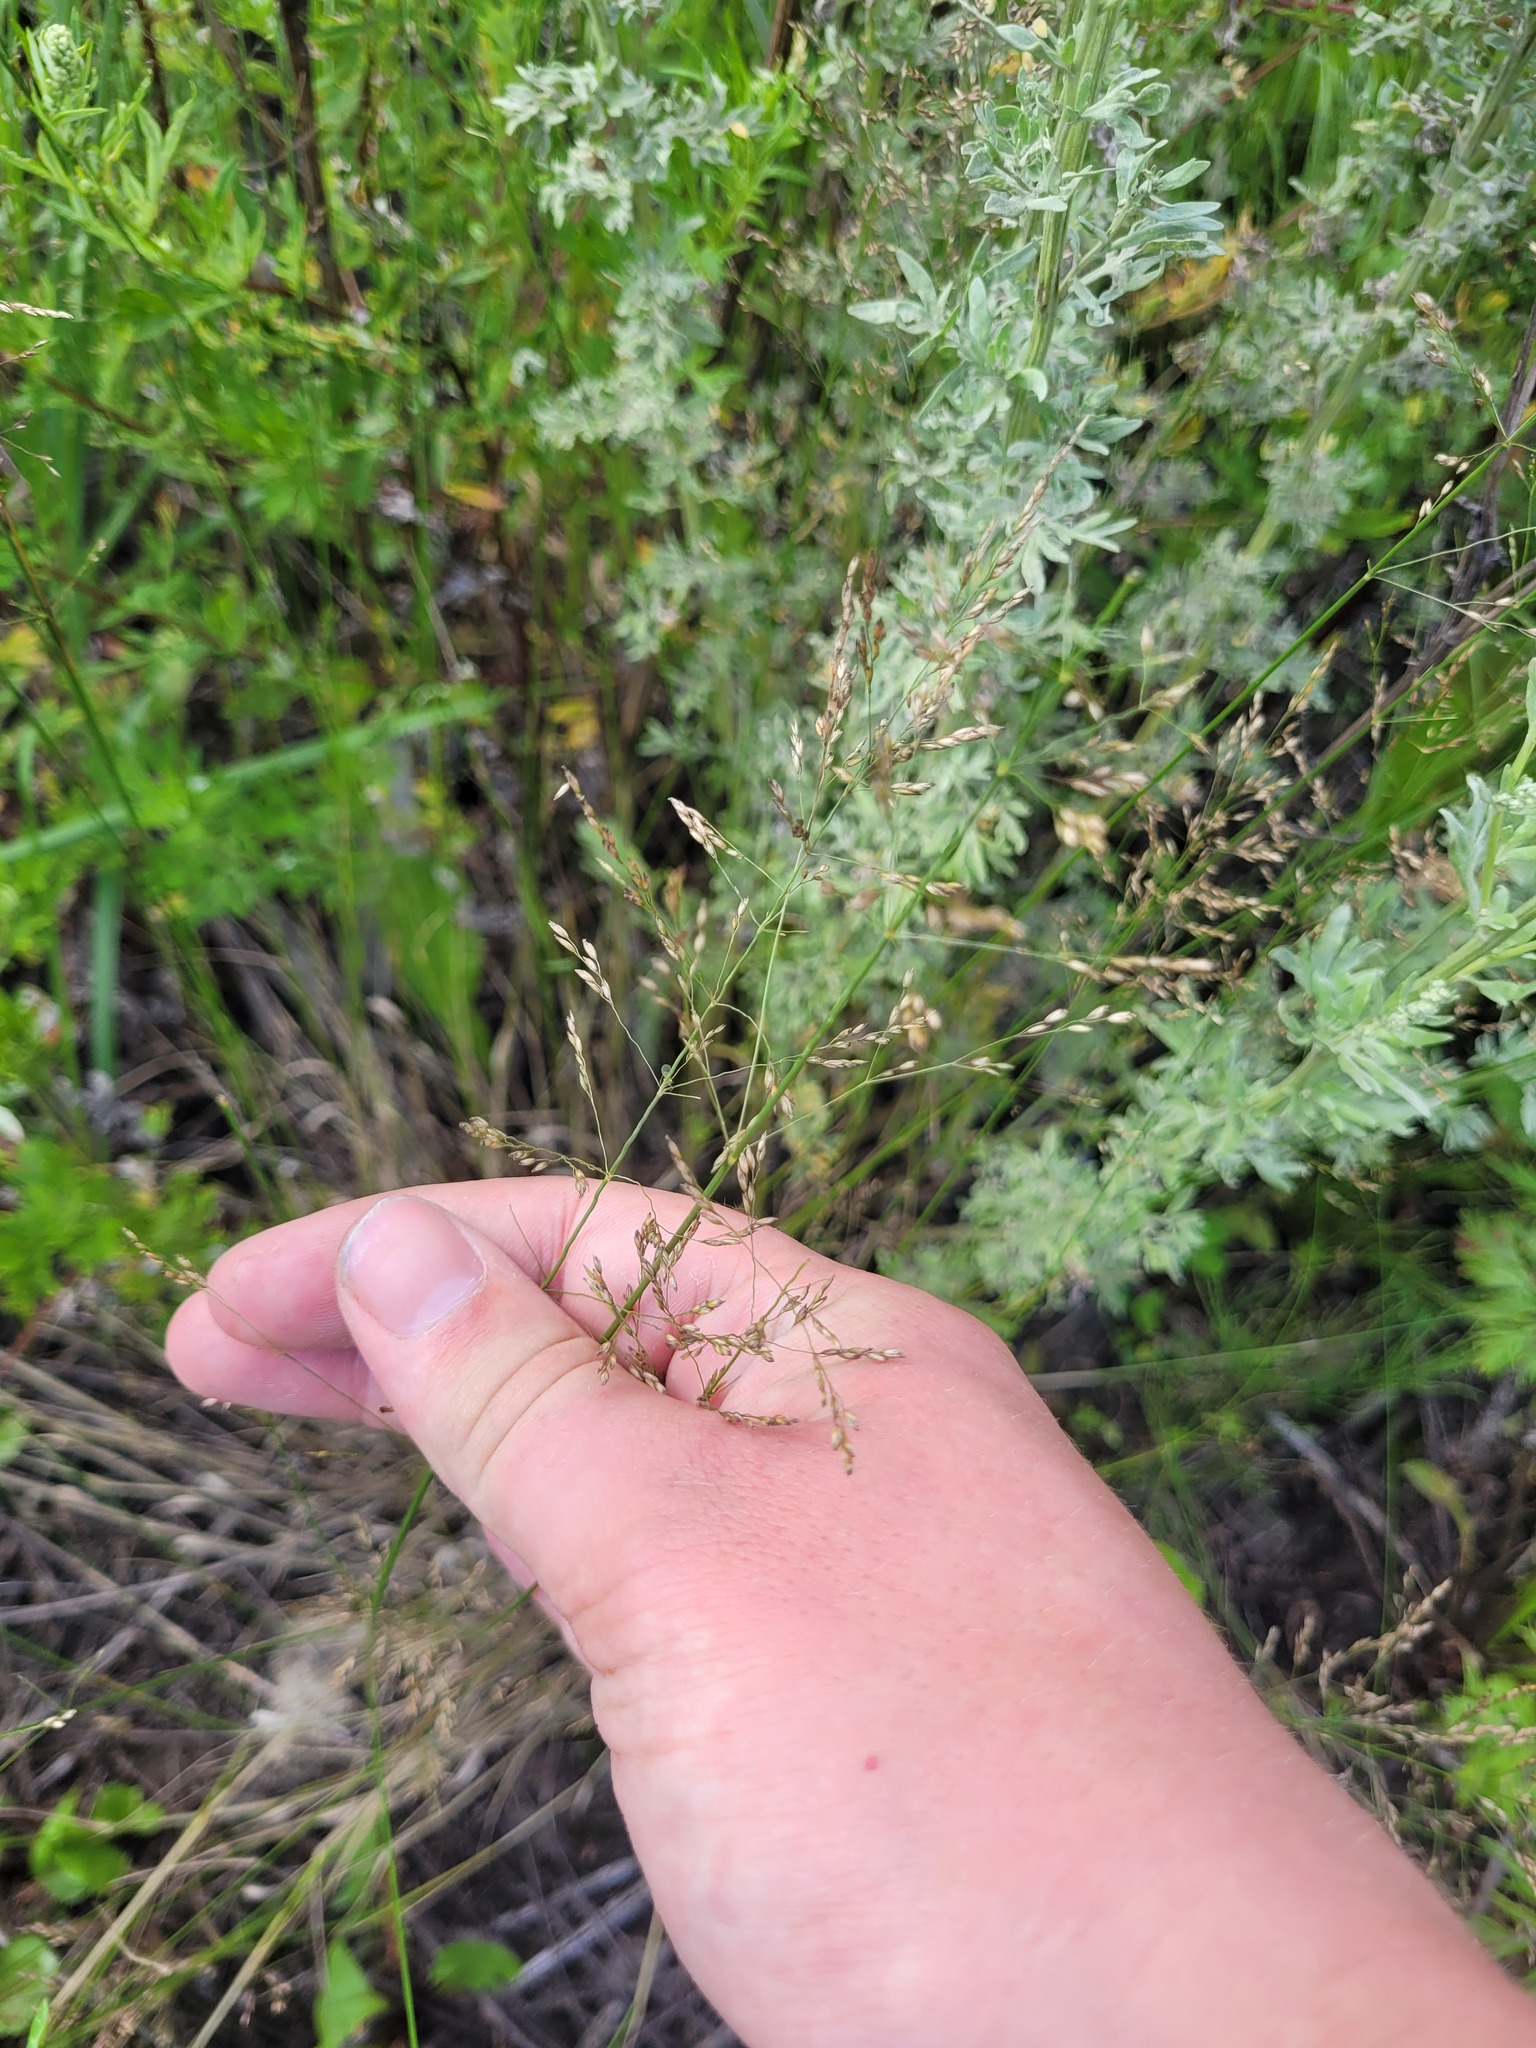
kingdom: Plantae
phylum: Tracheophyta
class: Liliopsida
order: Poales
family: Poaceae
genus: Poa
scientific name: Poa palustris
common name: Swamp meadow-grass
